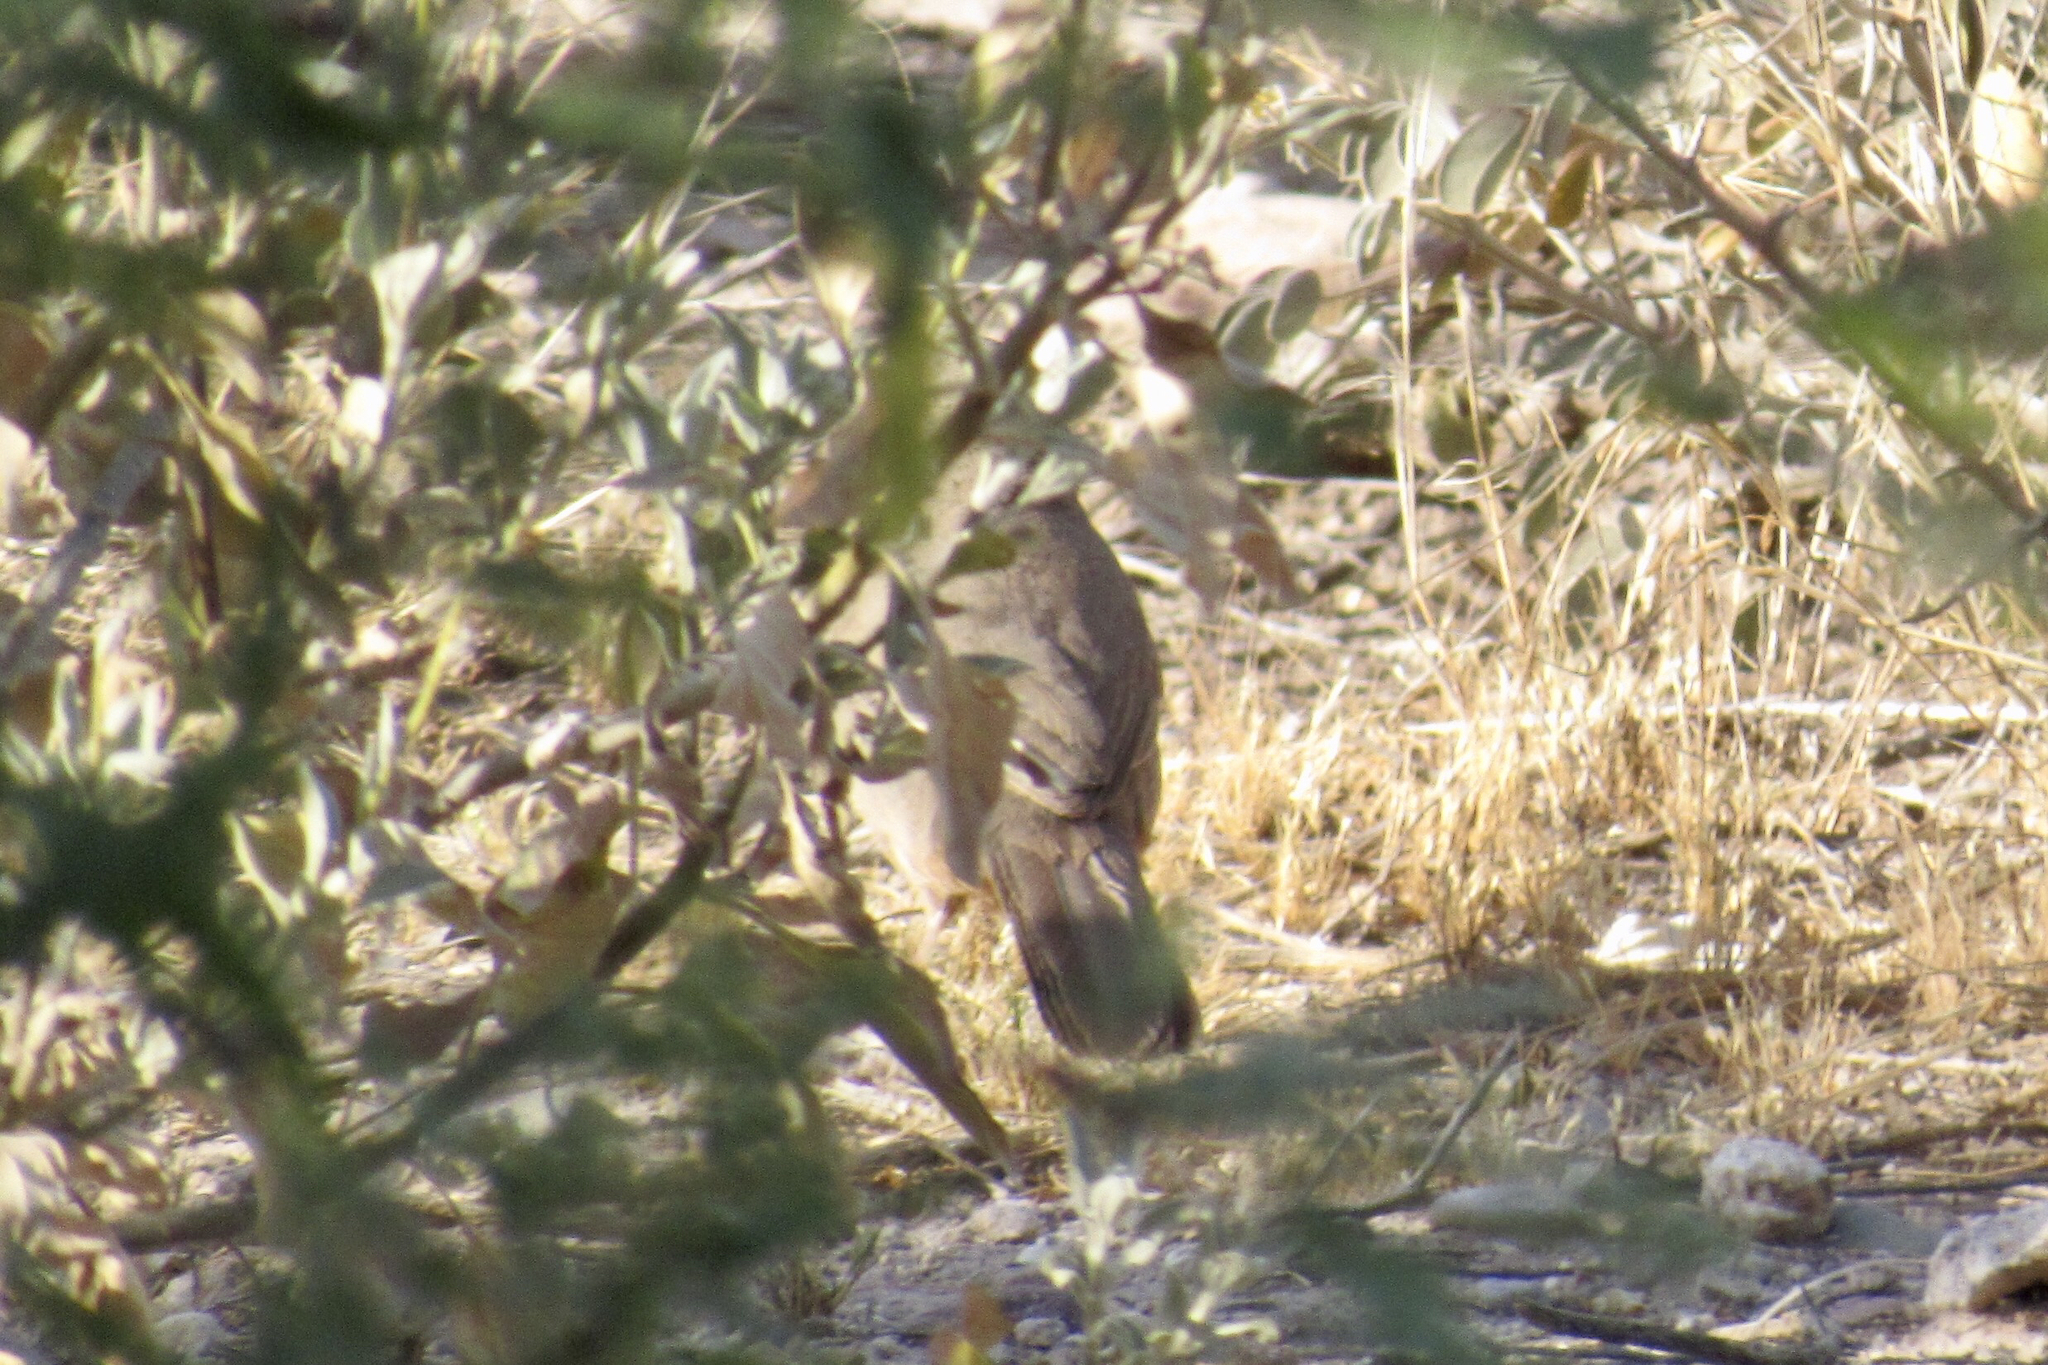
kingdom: Animalia
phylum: Chordata
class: Aves
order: Passeriformes
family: Passerellidae
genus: Pipilo
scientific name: Pipilo chlorurus
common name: Green-tailed towhee
